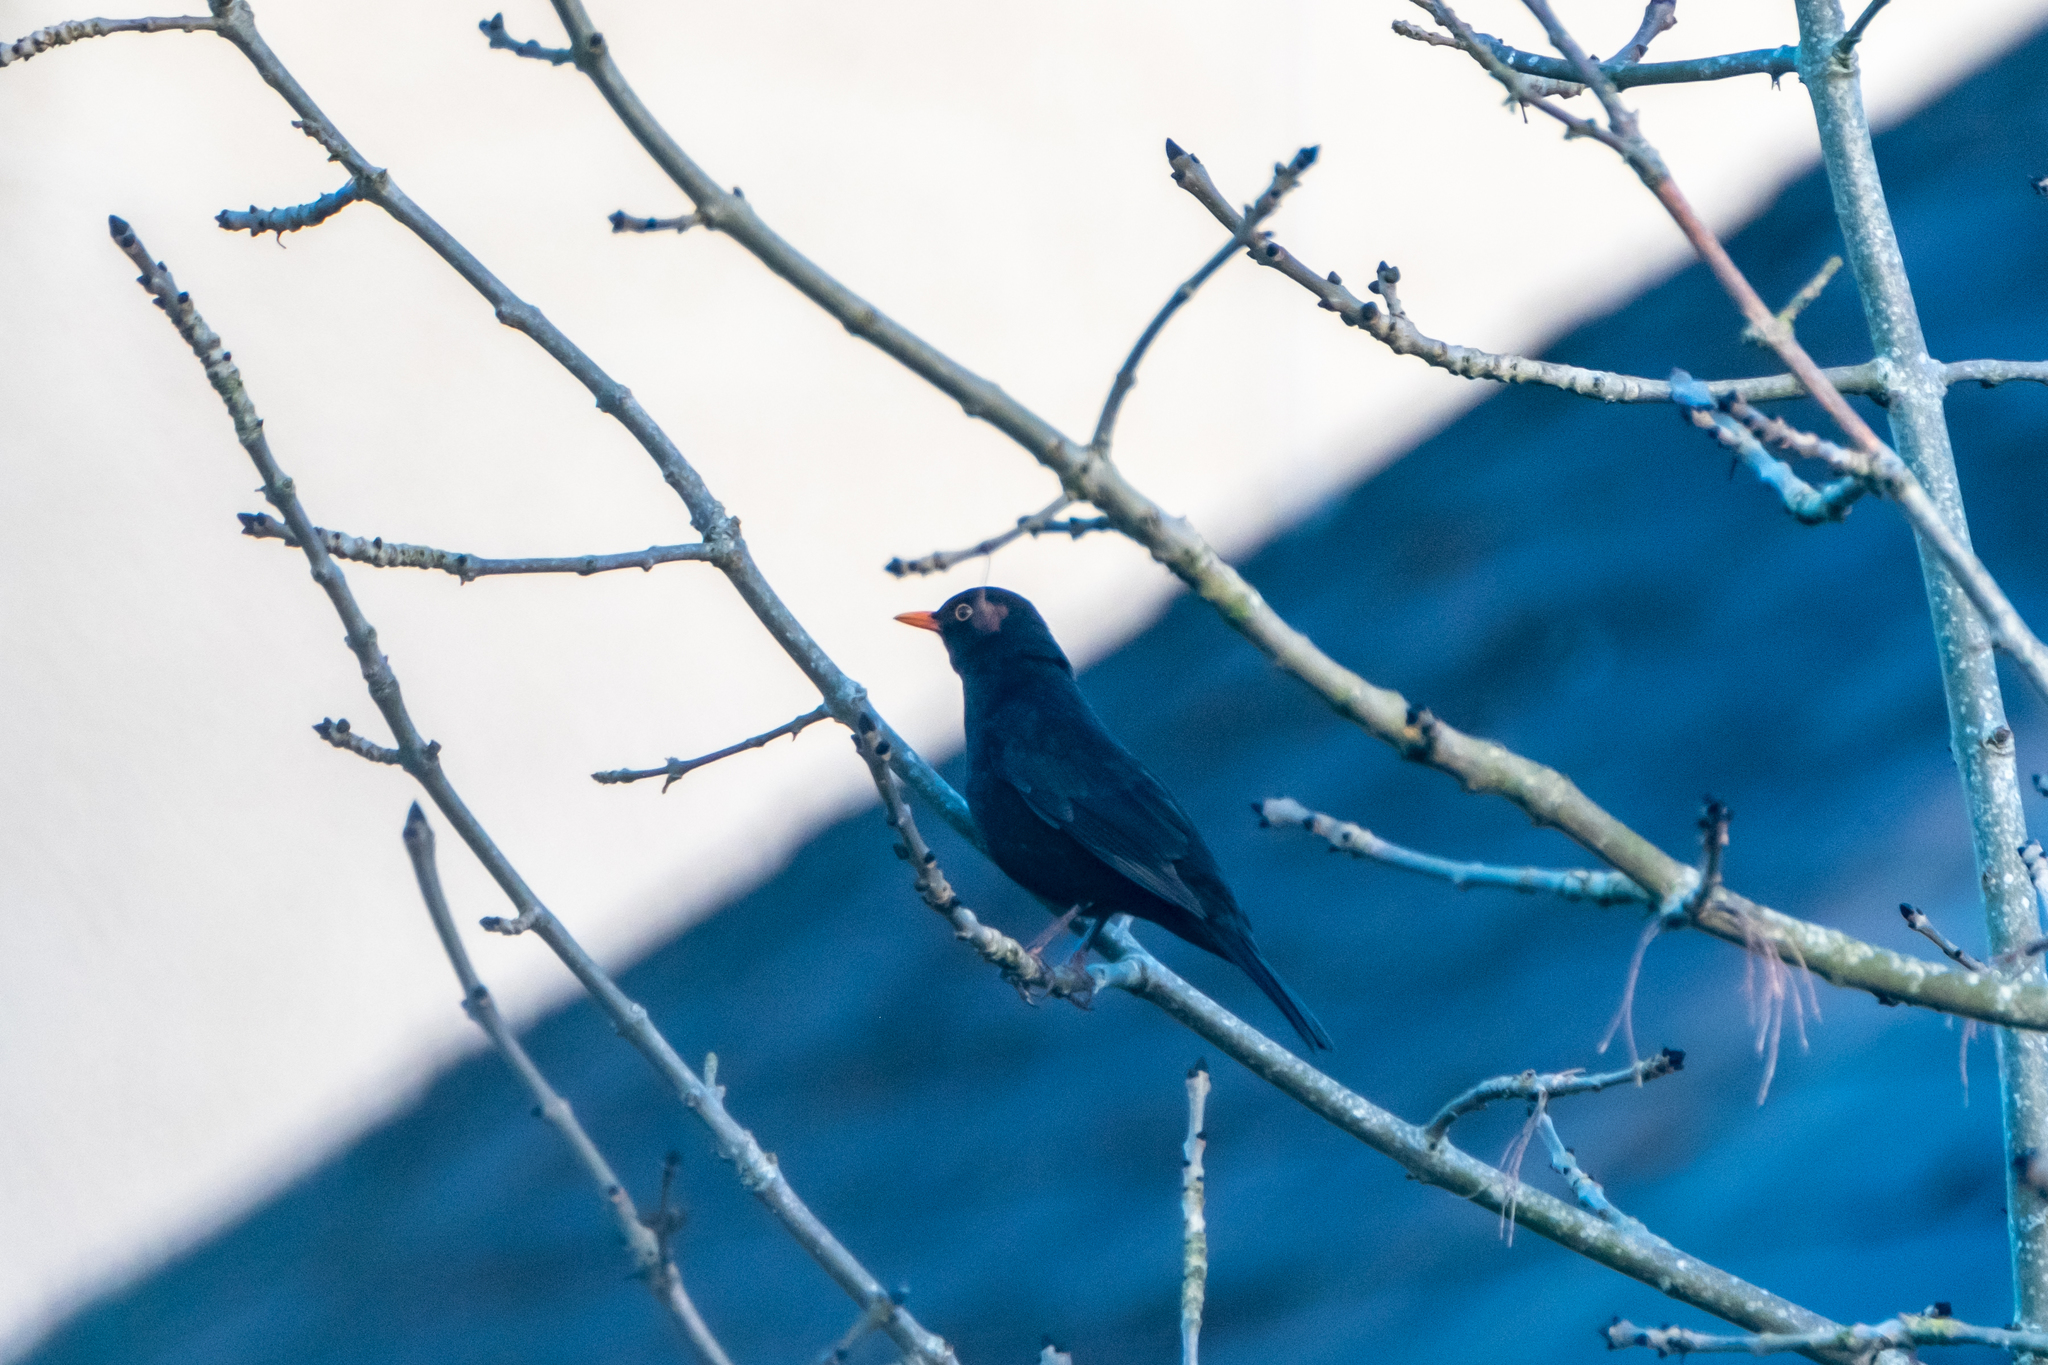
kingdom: Animalia
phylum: Chordata
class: Aves
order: Passeriformes
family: Turdidae
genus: Turdus
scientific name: Turdus merula
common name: Common blackbird
